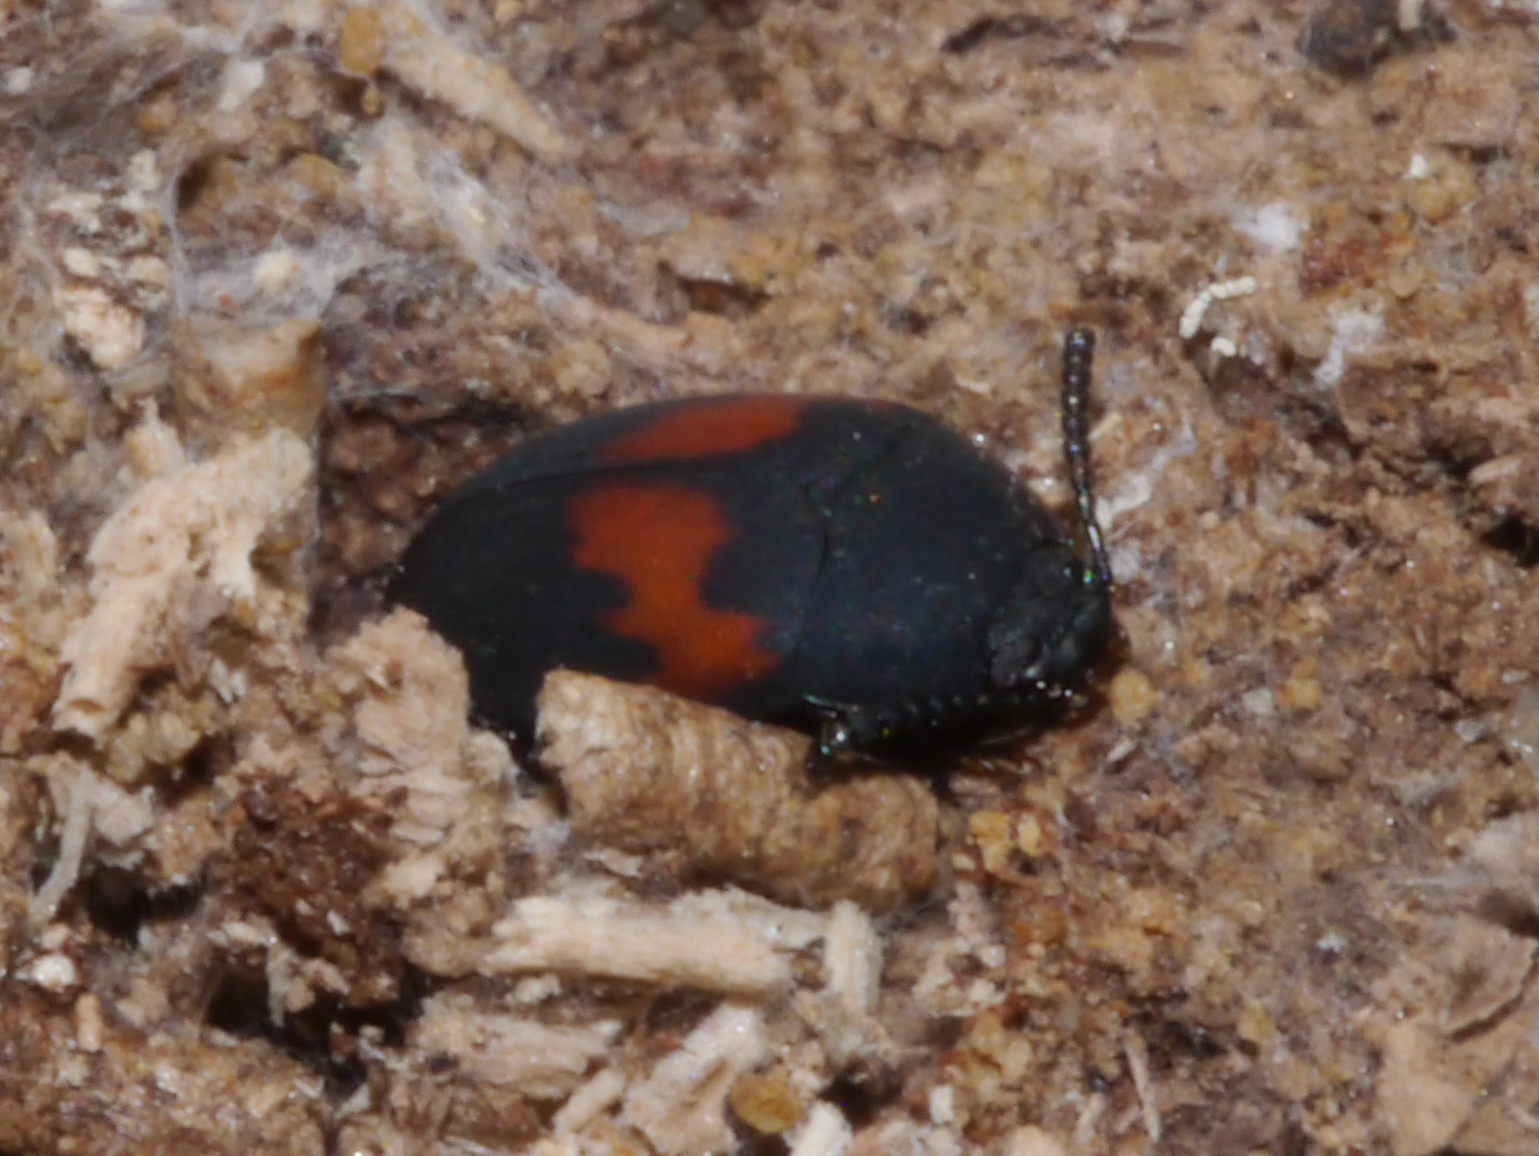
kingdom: Animalia
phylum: Arthropoda
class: Insecta
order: Coleoptera
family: Tenebrionidae
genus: Platydema
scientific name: Platydema elliptica
